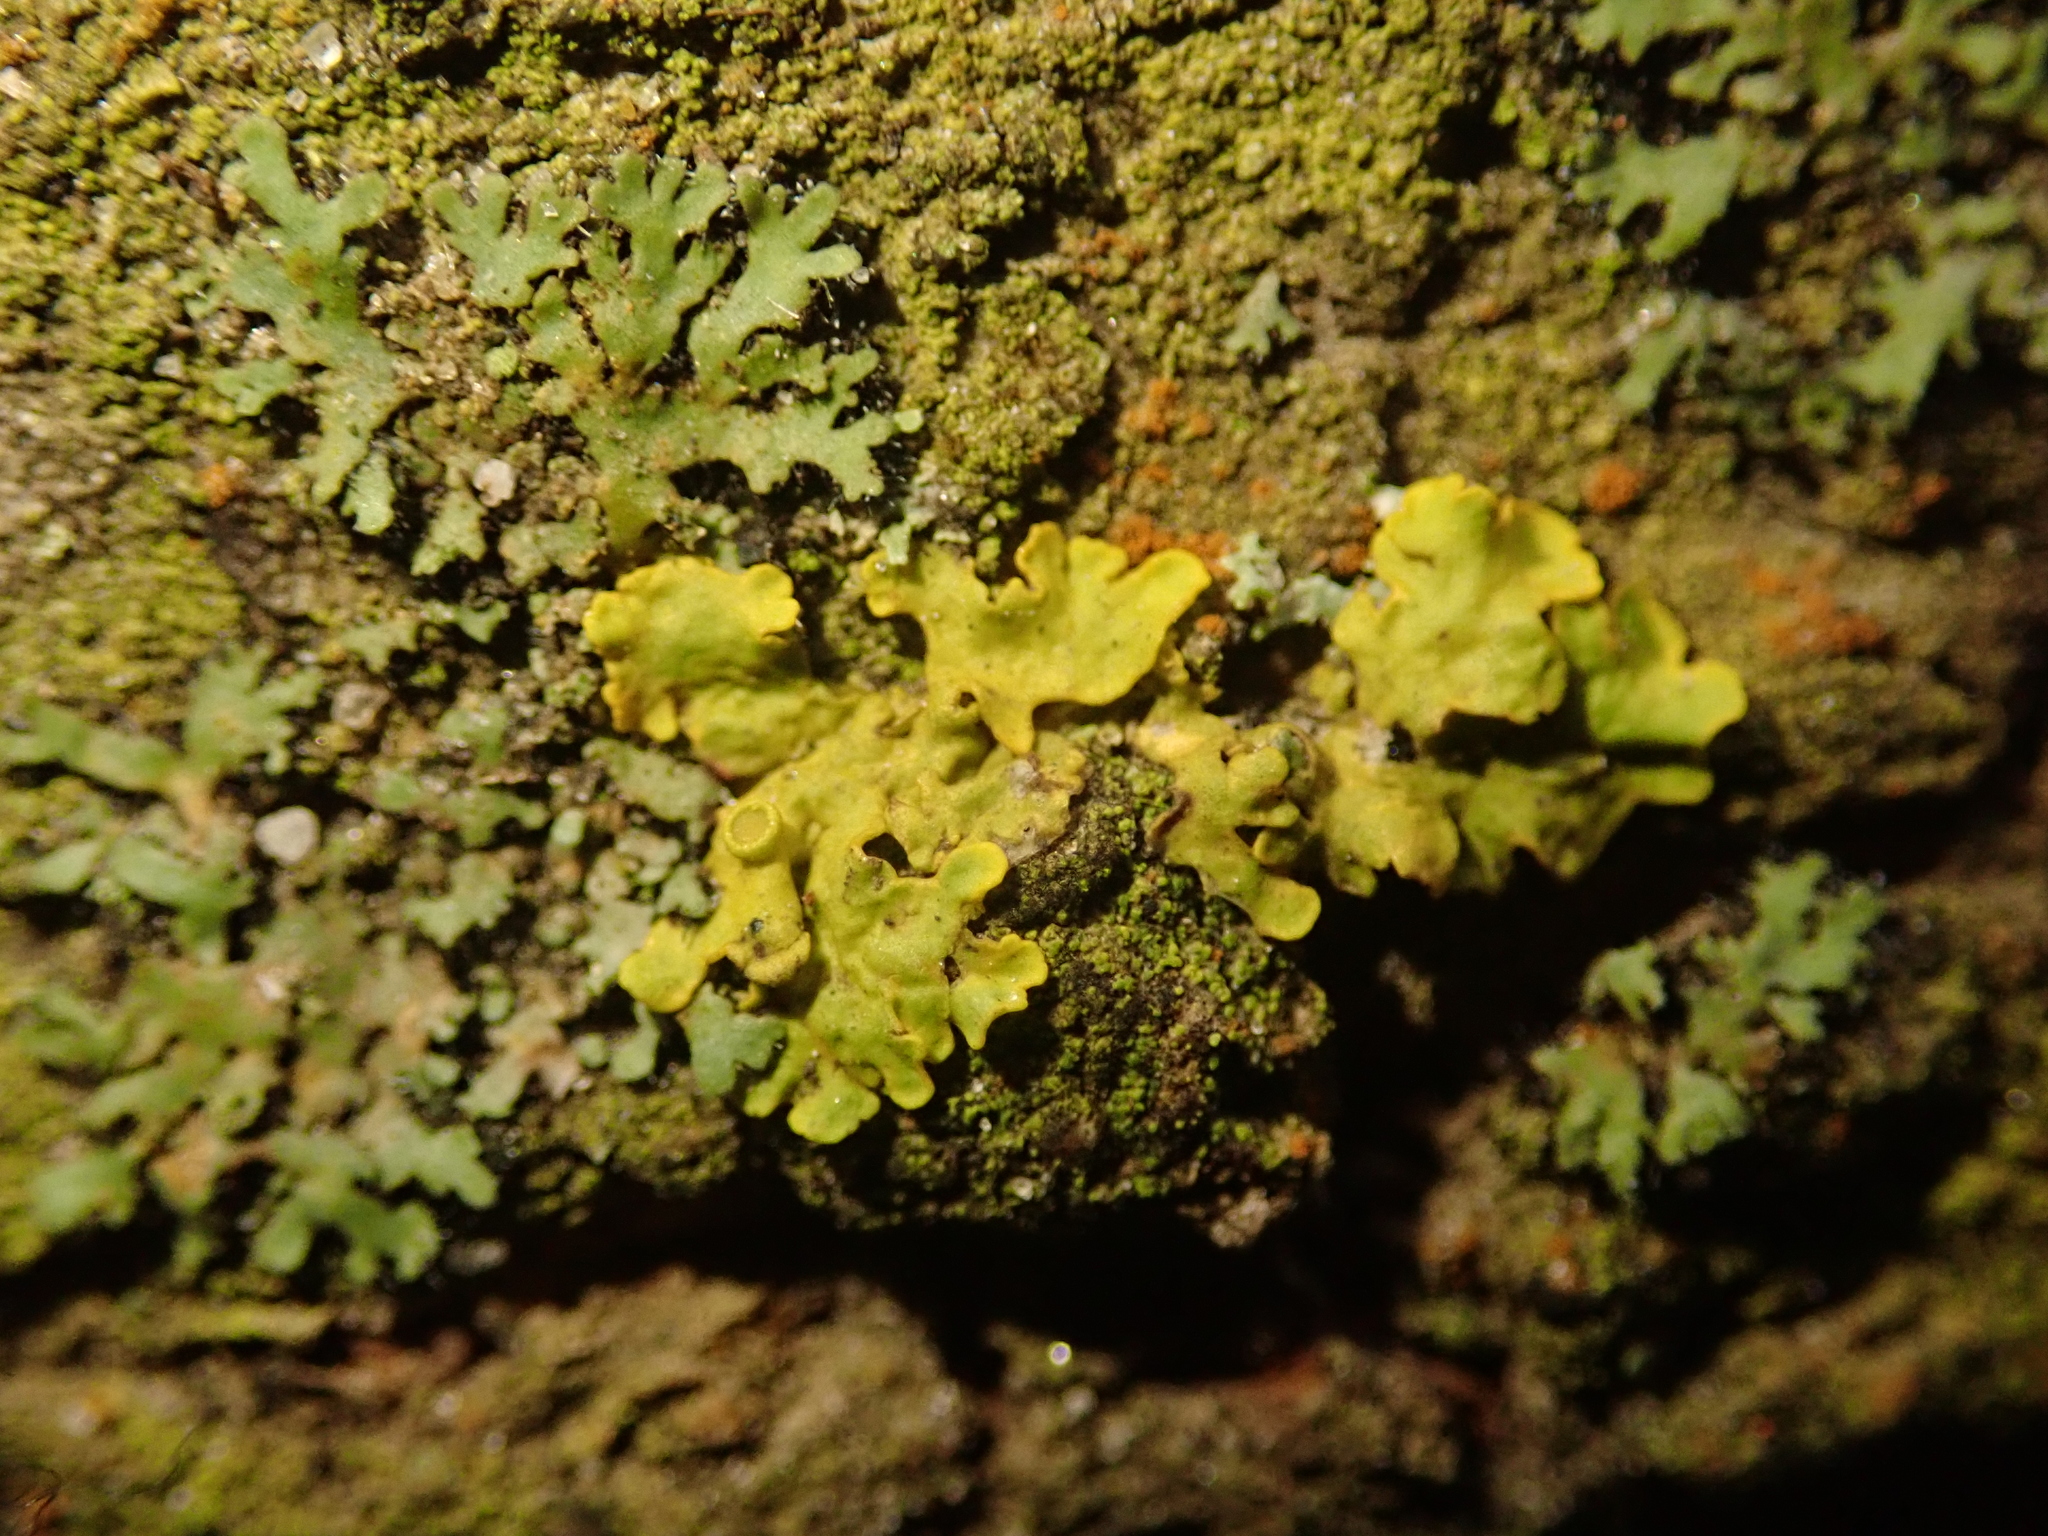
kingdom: Fungi
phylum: Ascomycota
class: Lecanoromycetes
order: Teloschistales
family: Teloschistaceae
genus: Xanthoria
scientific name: Xanthoria parietina
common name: Common orange lichen
